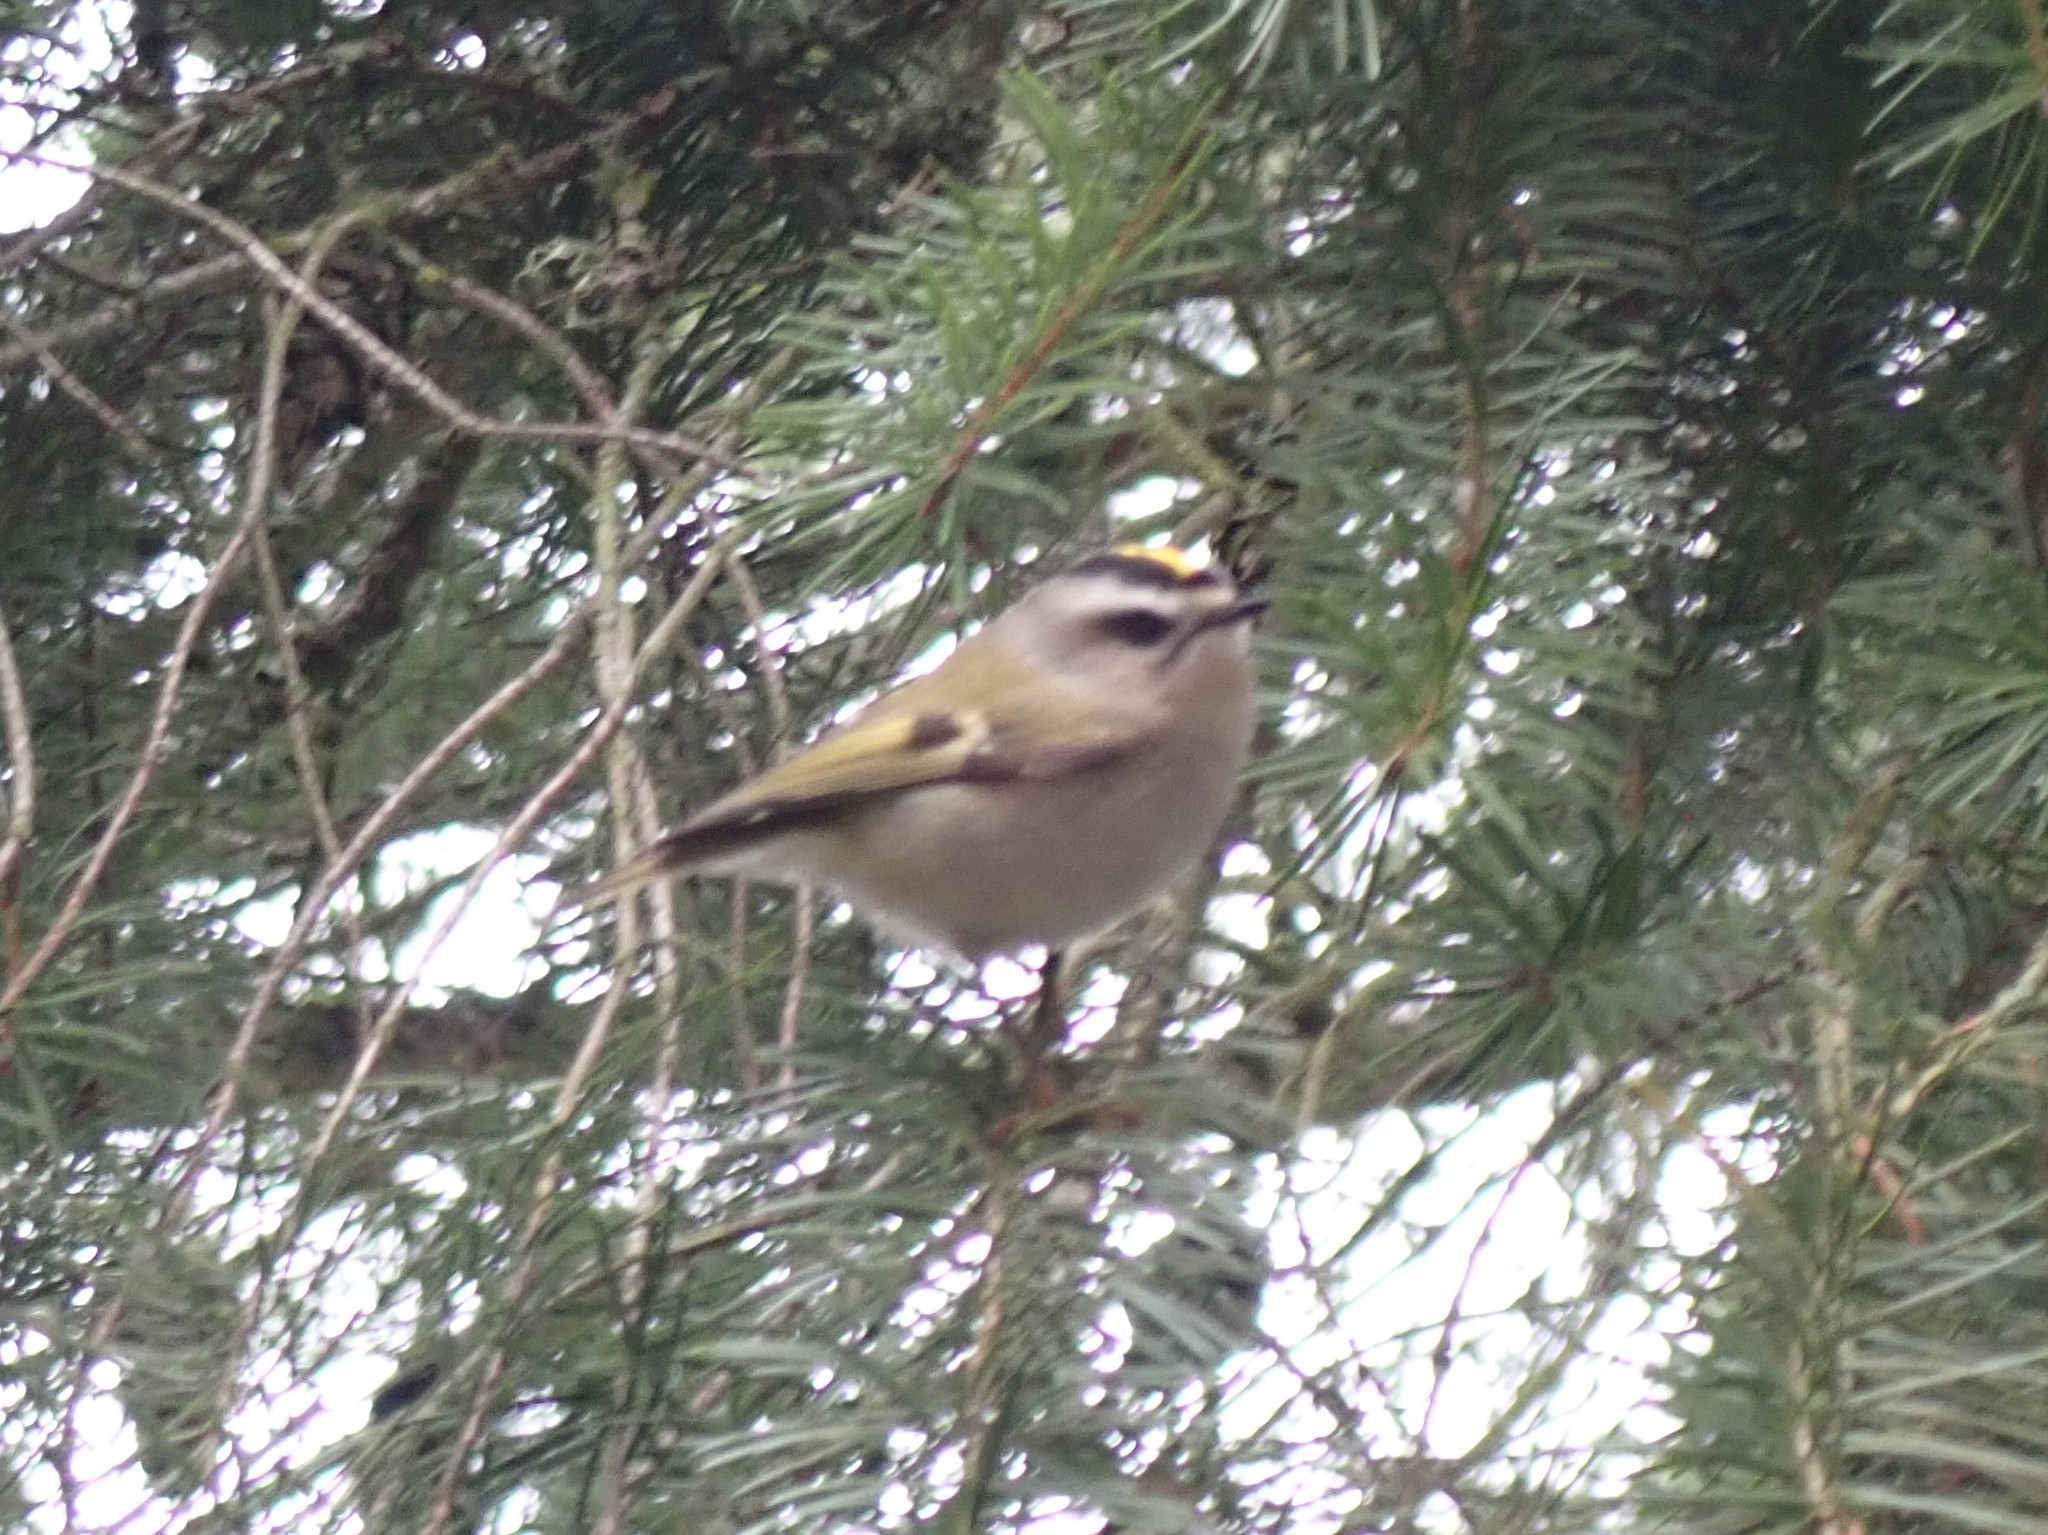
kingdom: Animalia
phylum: Chordata
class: Aves
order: Passeriformes
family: Regulidae
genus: Regulus
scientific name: Regulus satrapa
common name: Golden-crowned kinglet
